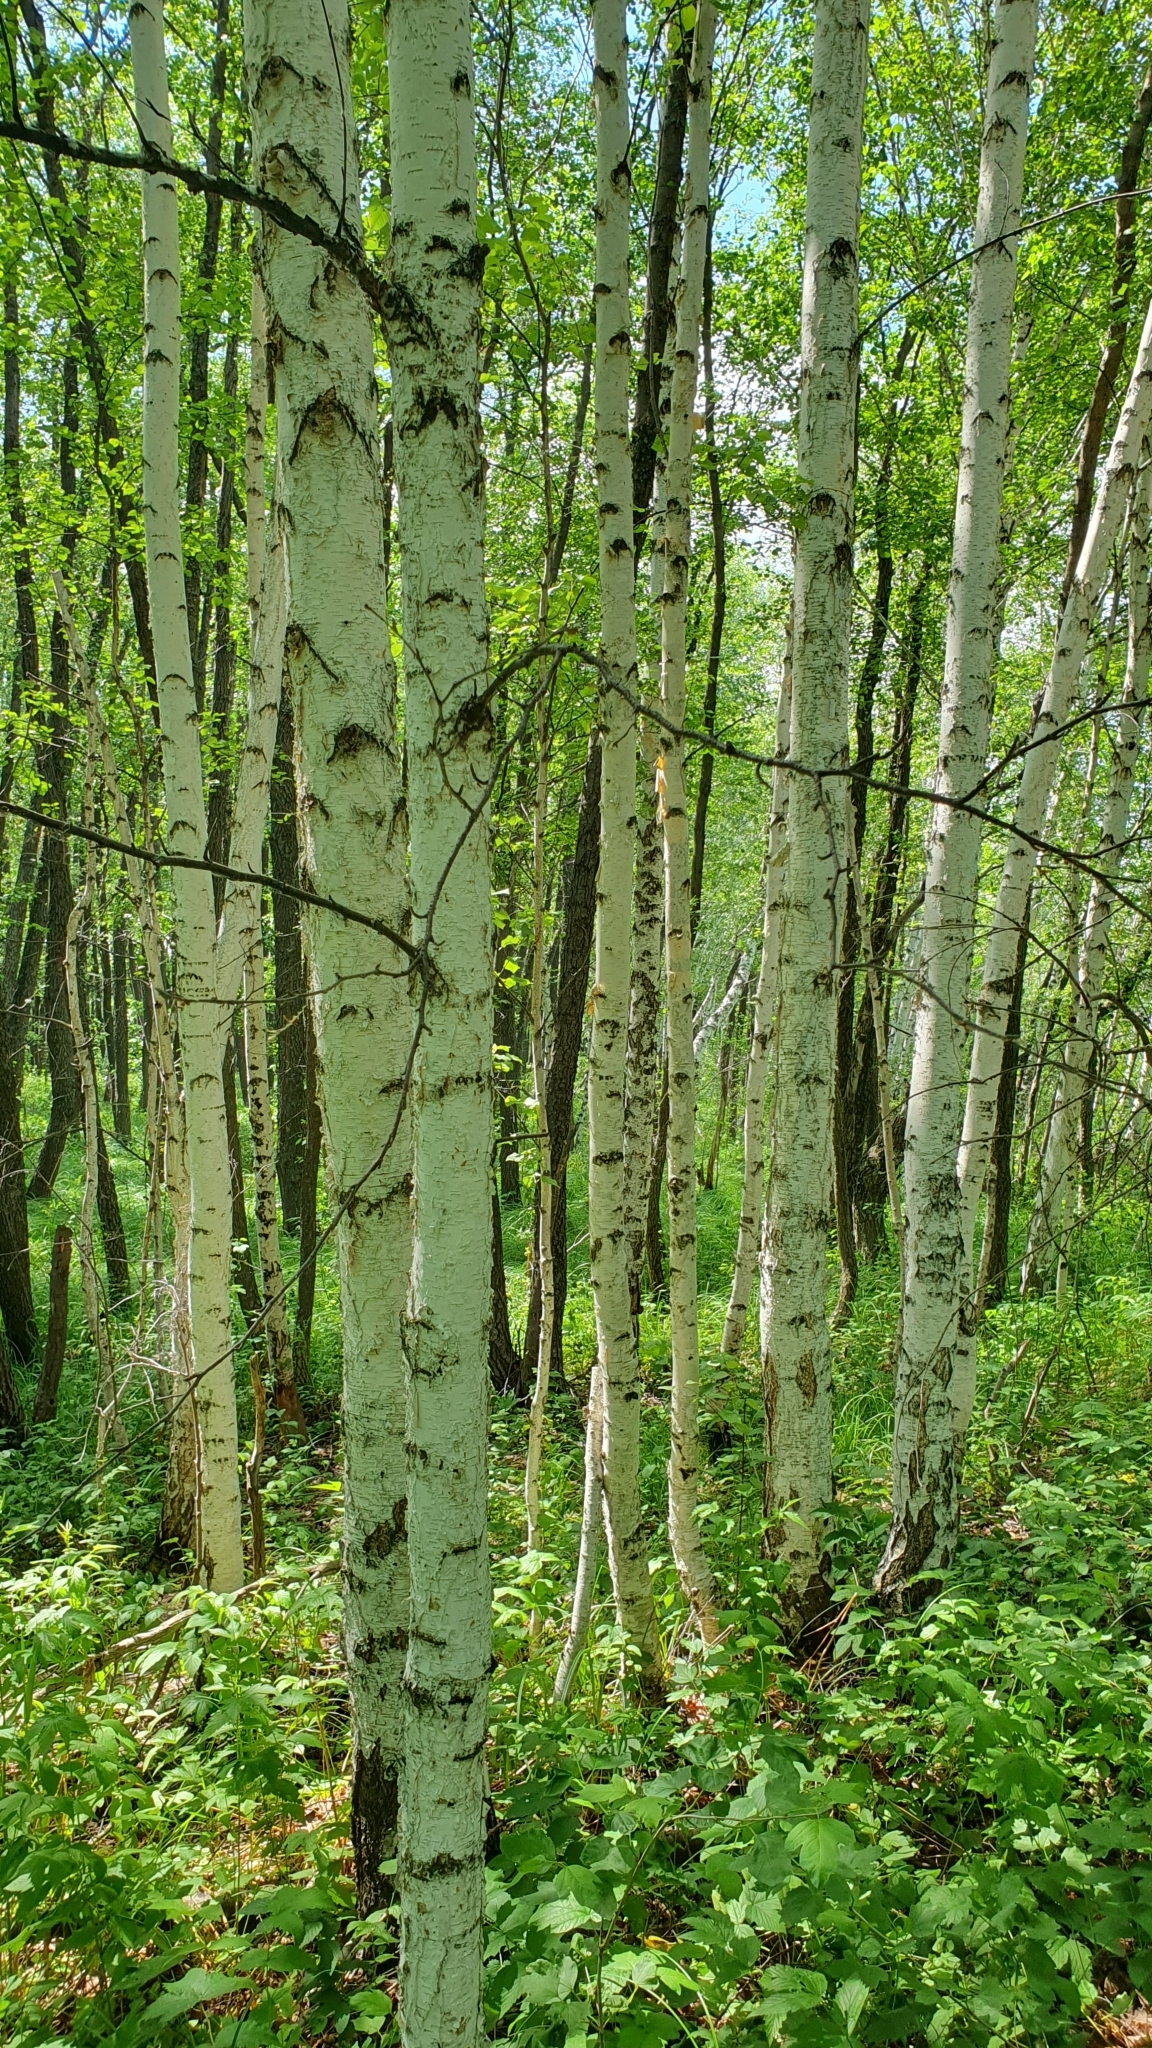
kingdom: Plantae
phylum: Tracheophyta
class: Magnoliopsida
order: Fagales
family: Betulaceae
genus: Betula
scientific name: Betula pendula
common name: Silver birch
